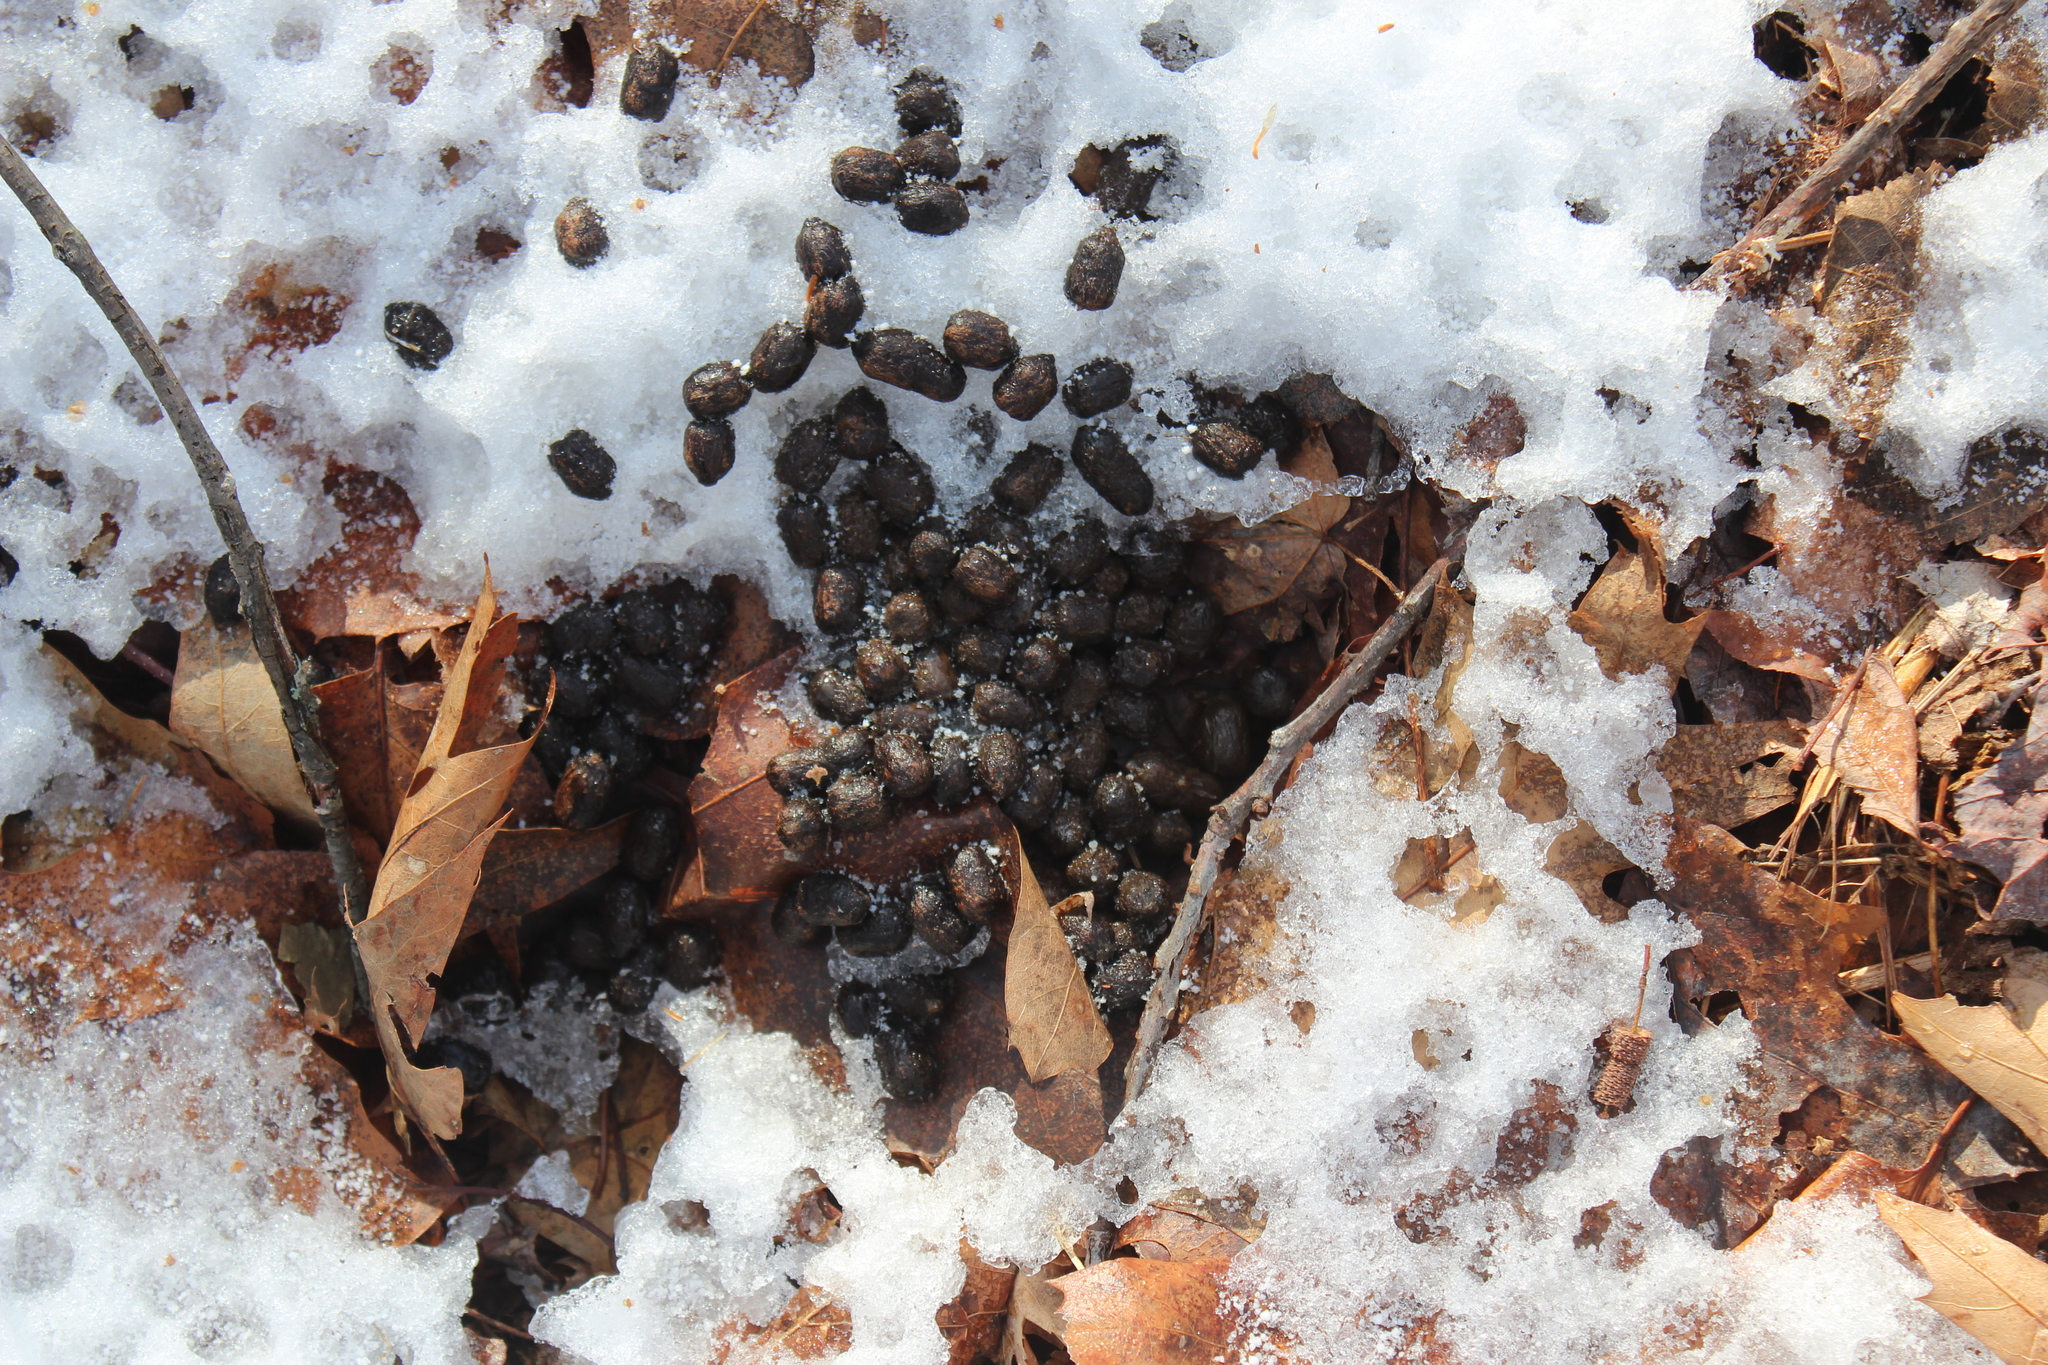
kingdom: Animalia
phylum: Chordata
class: Mammalia
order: Artiodactyla
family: Cervidae
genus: Odocoileus
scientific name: Odocoileus virginianus
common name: White-tailed deer
